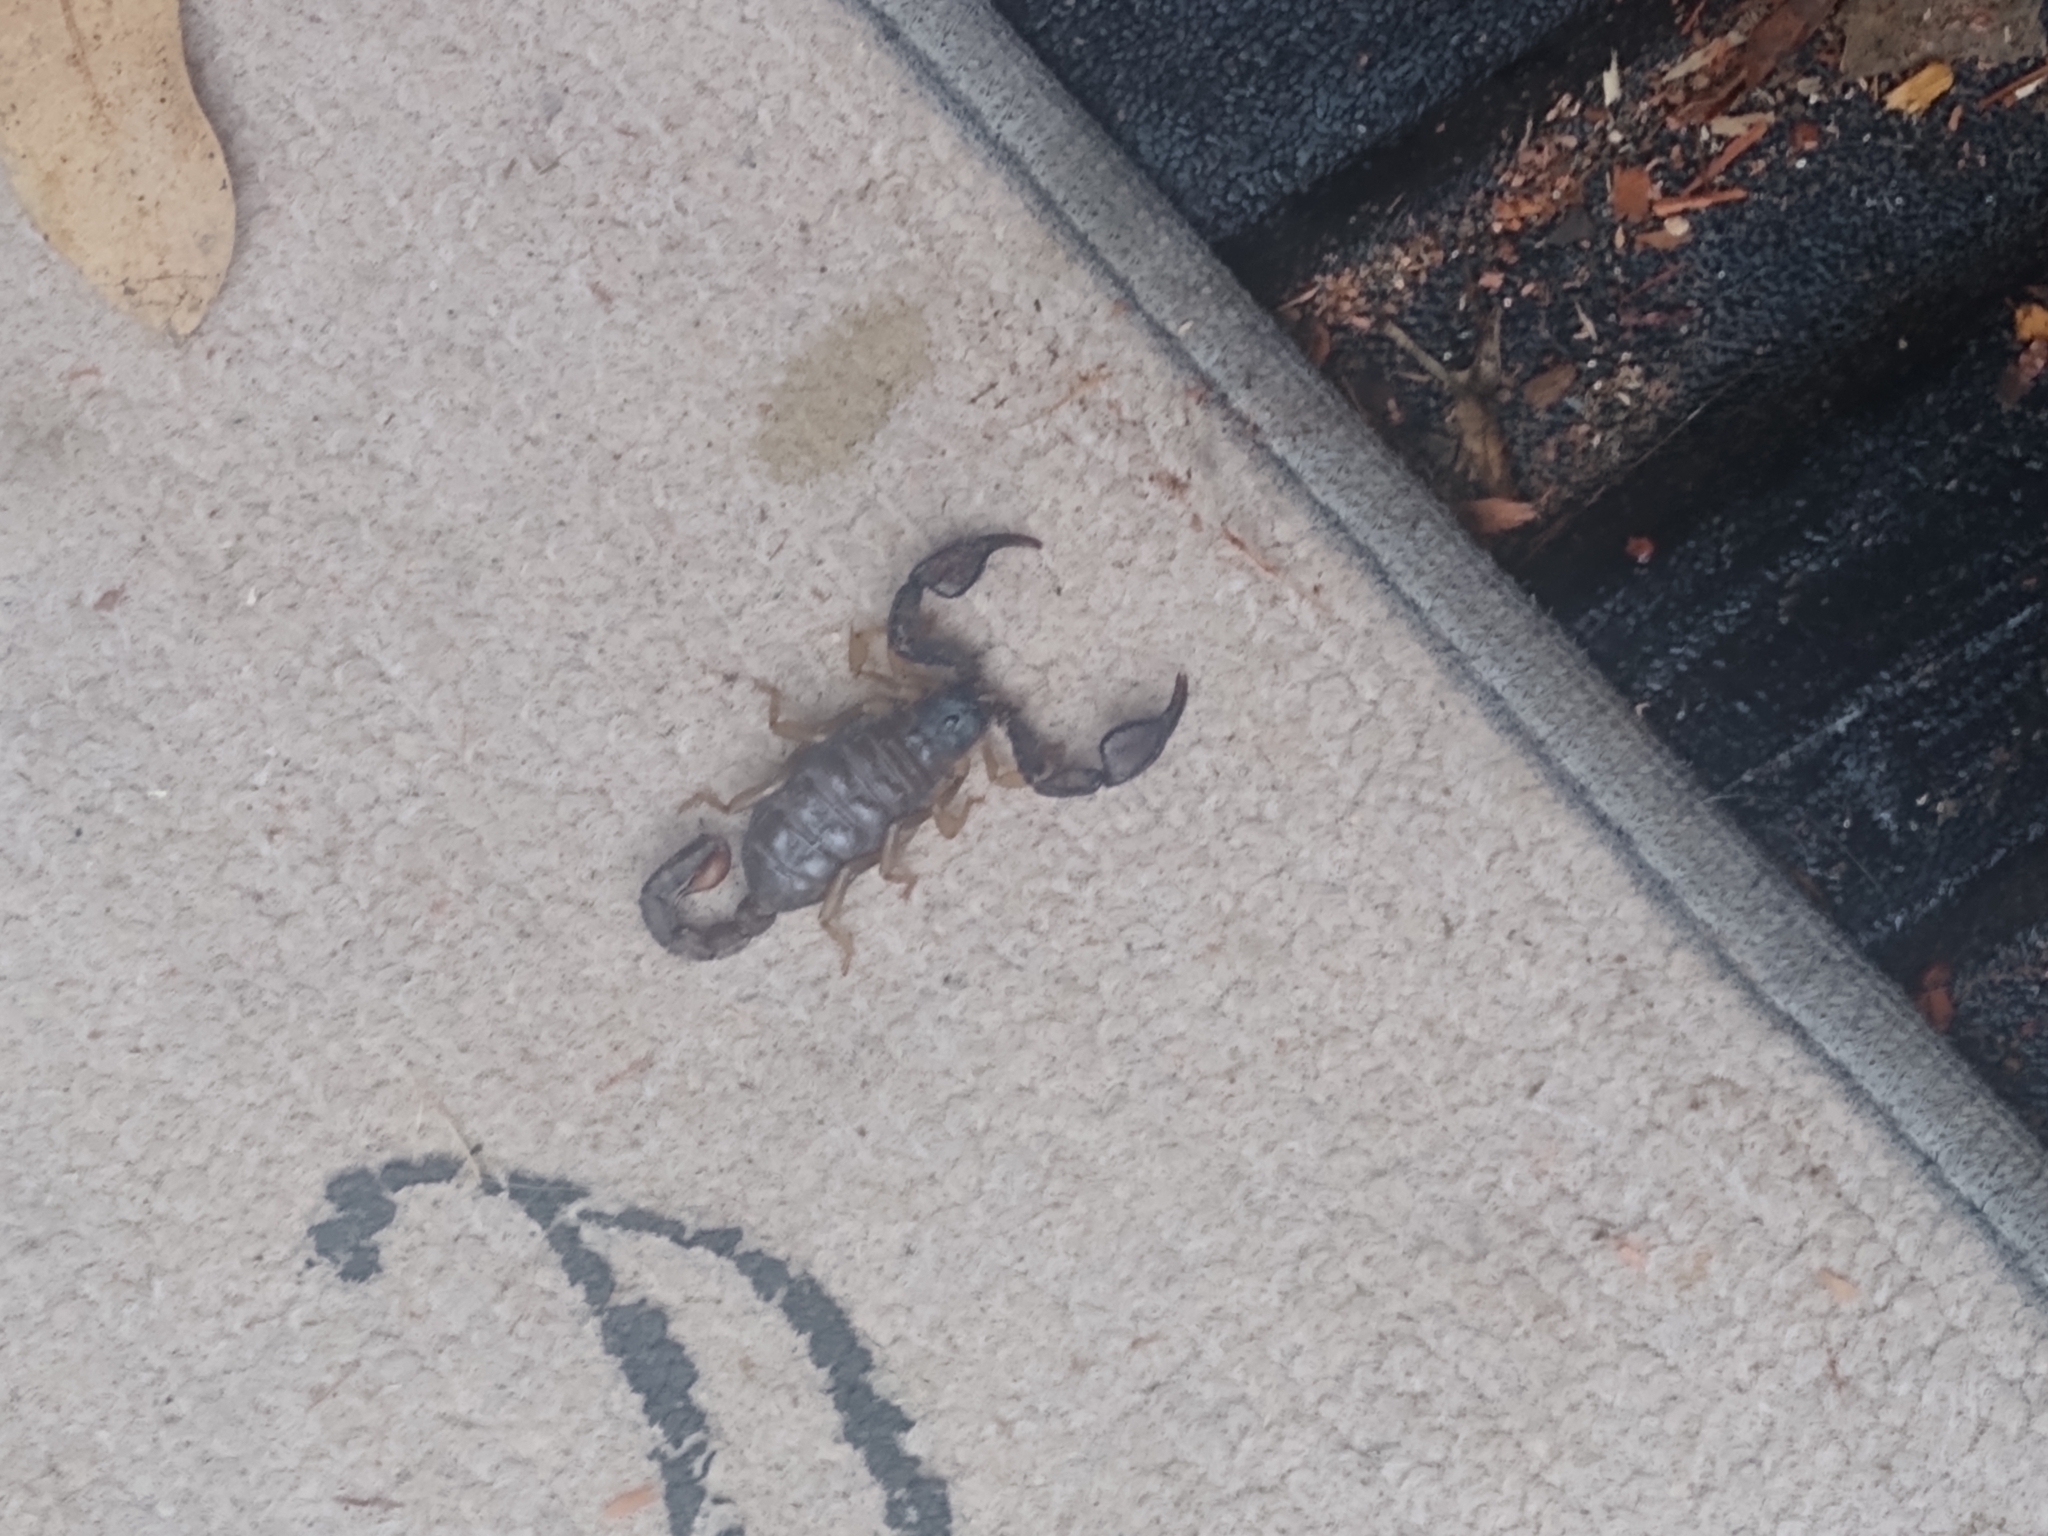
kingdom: Animalia
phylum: Arthropoda
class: Arachnida
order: Scorpiones
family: Chactidae
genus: Uroctonus
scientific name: Uroctonus mordax
